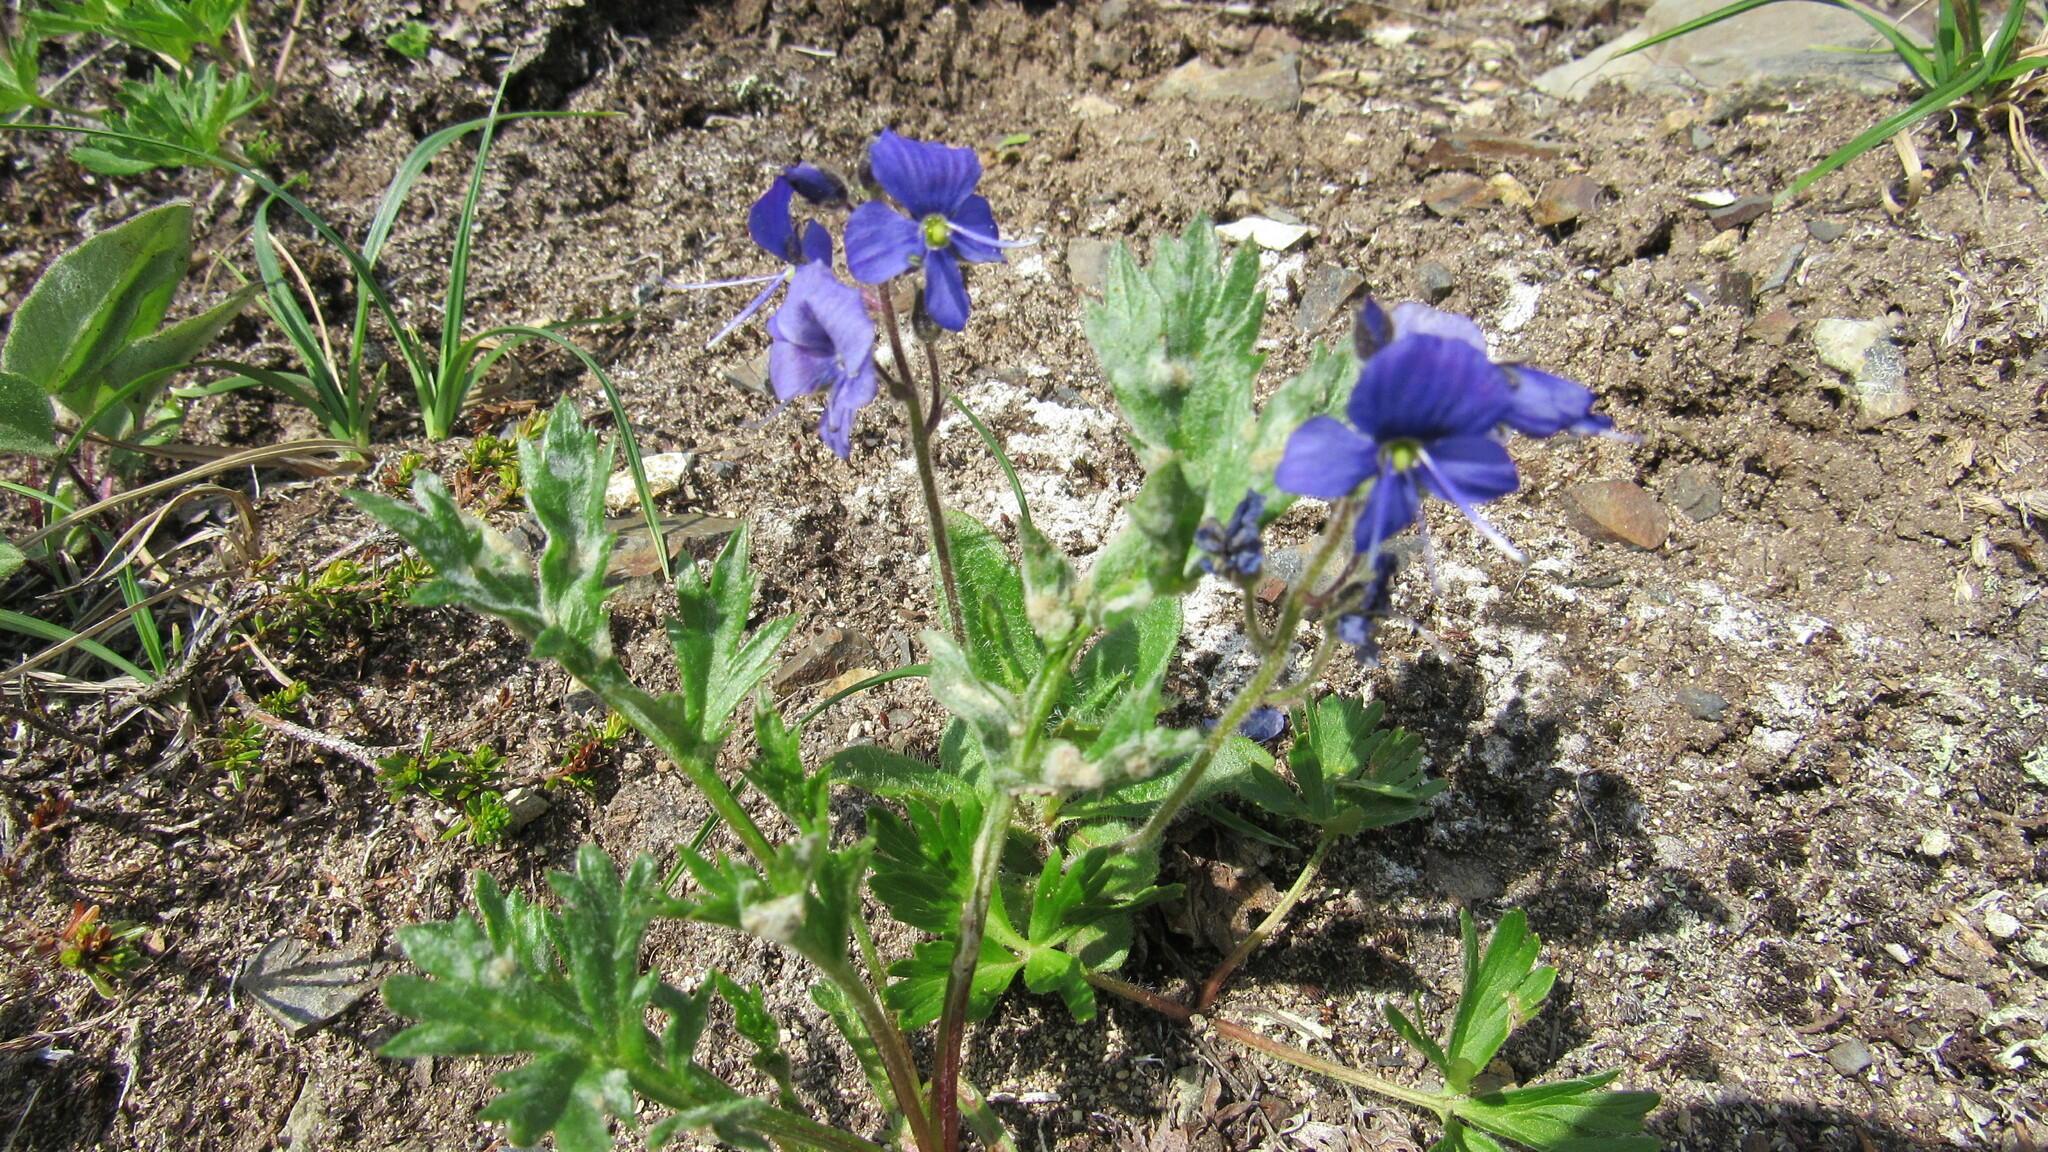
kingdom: Plantae
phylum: Tracheophyta
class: Magnoliopsida
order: Lamiales
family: Plantaginaceae
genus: Veronica
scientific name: Veronica grandiflora
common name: Large-flower speedwell
